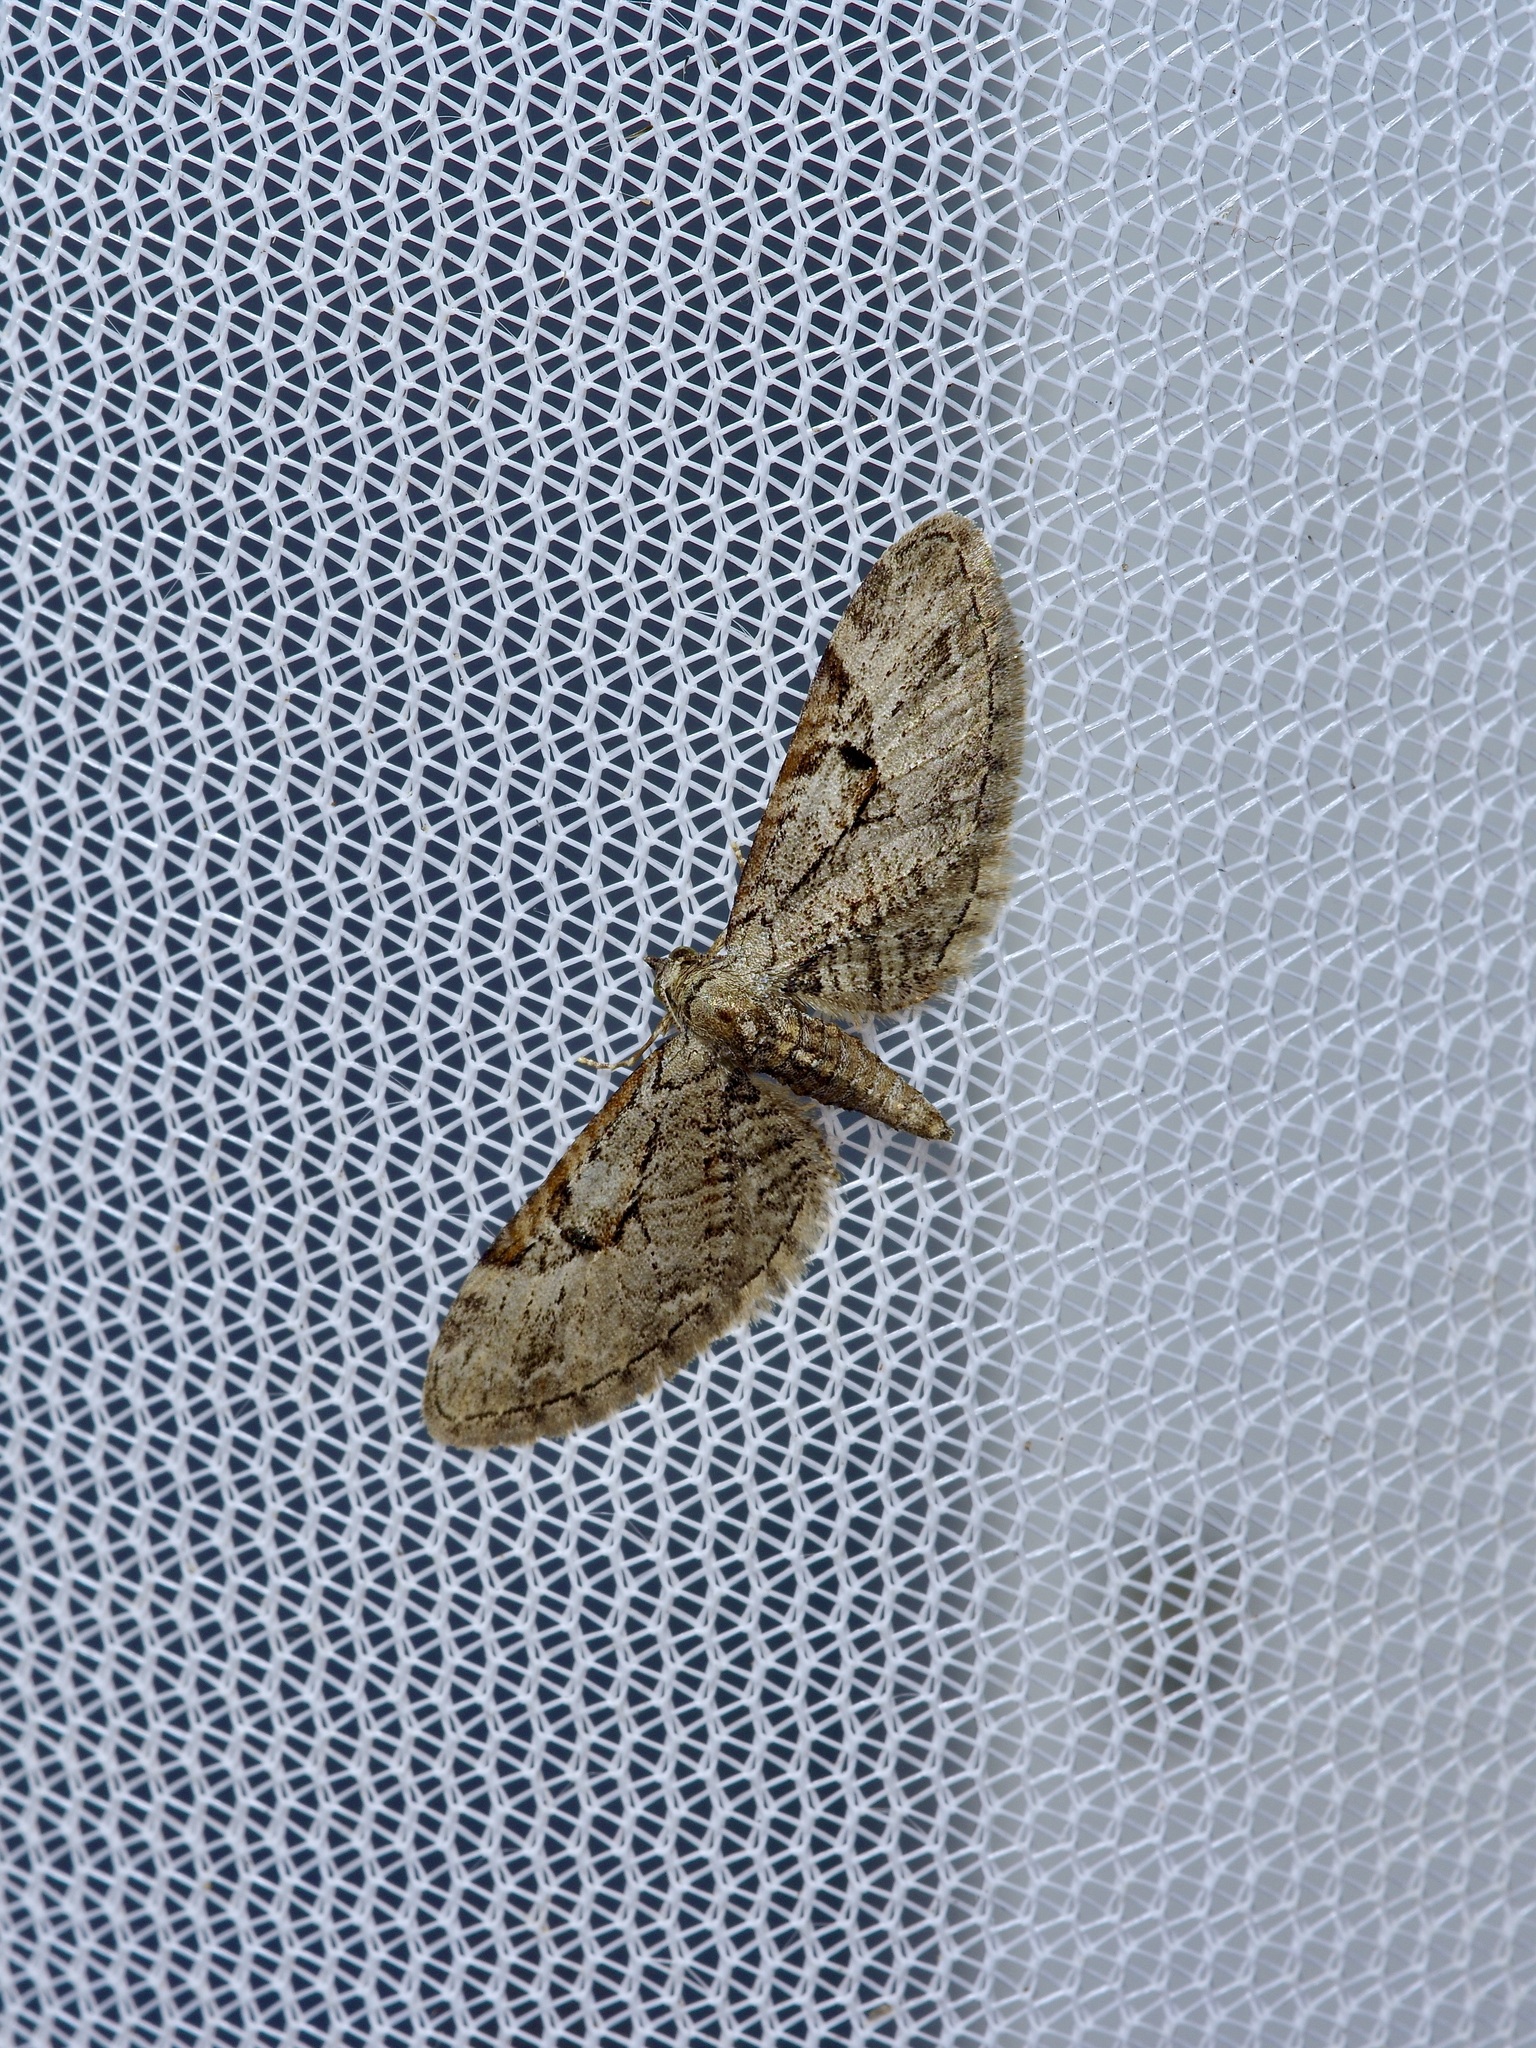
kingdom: Animalia
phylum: Arthropoda
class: Insecta
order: Lepidoptera
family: Geometridae
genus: Eupithecia
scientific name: Eupithecia bolterii
